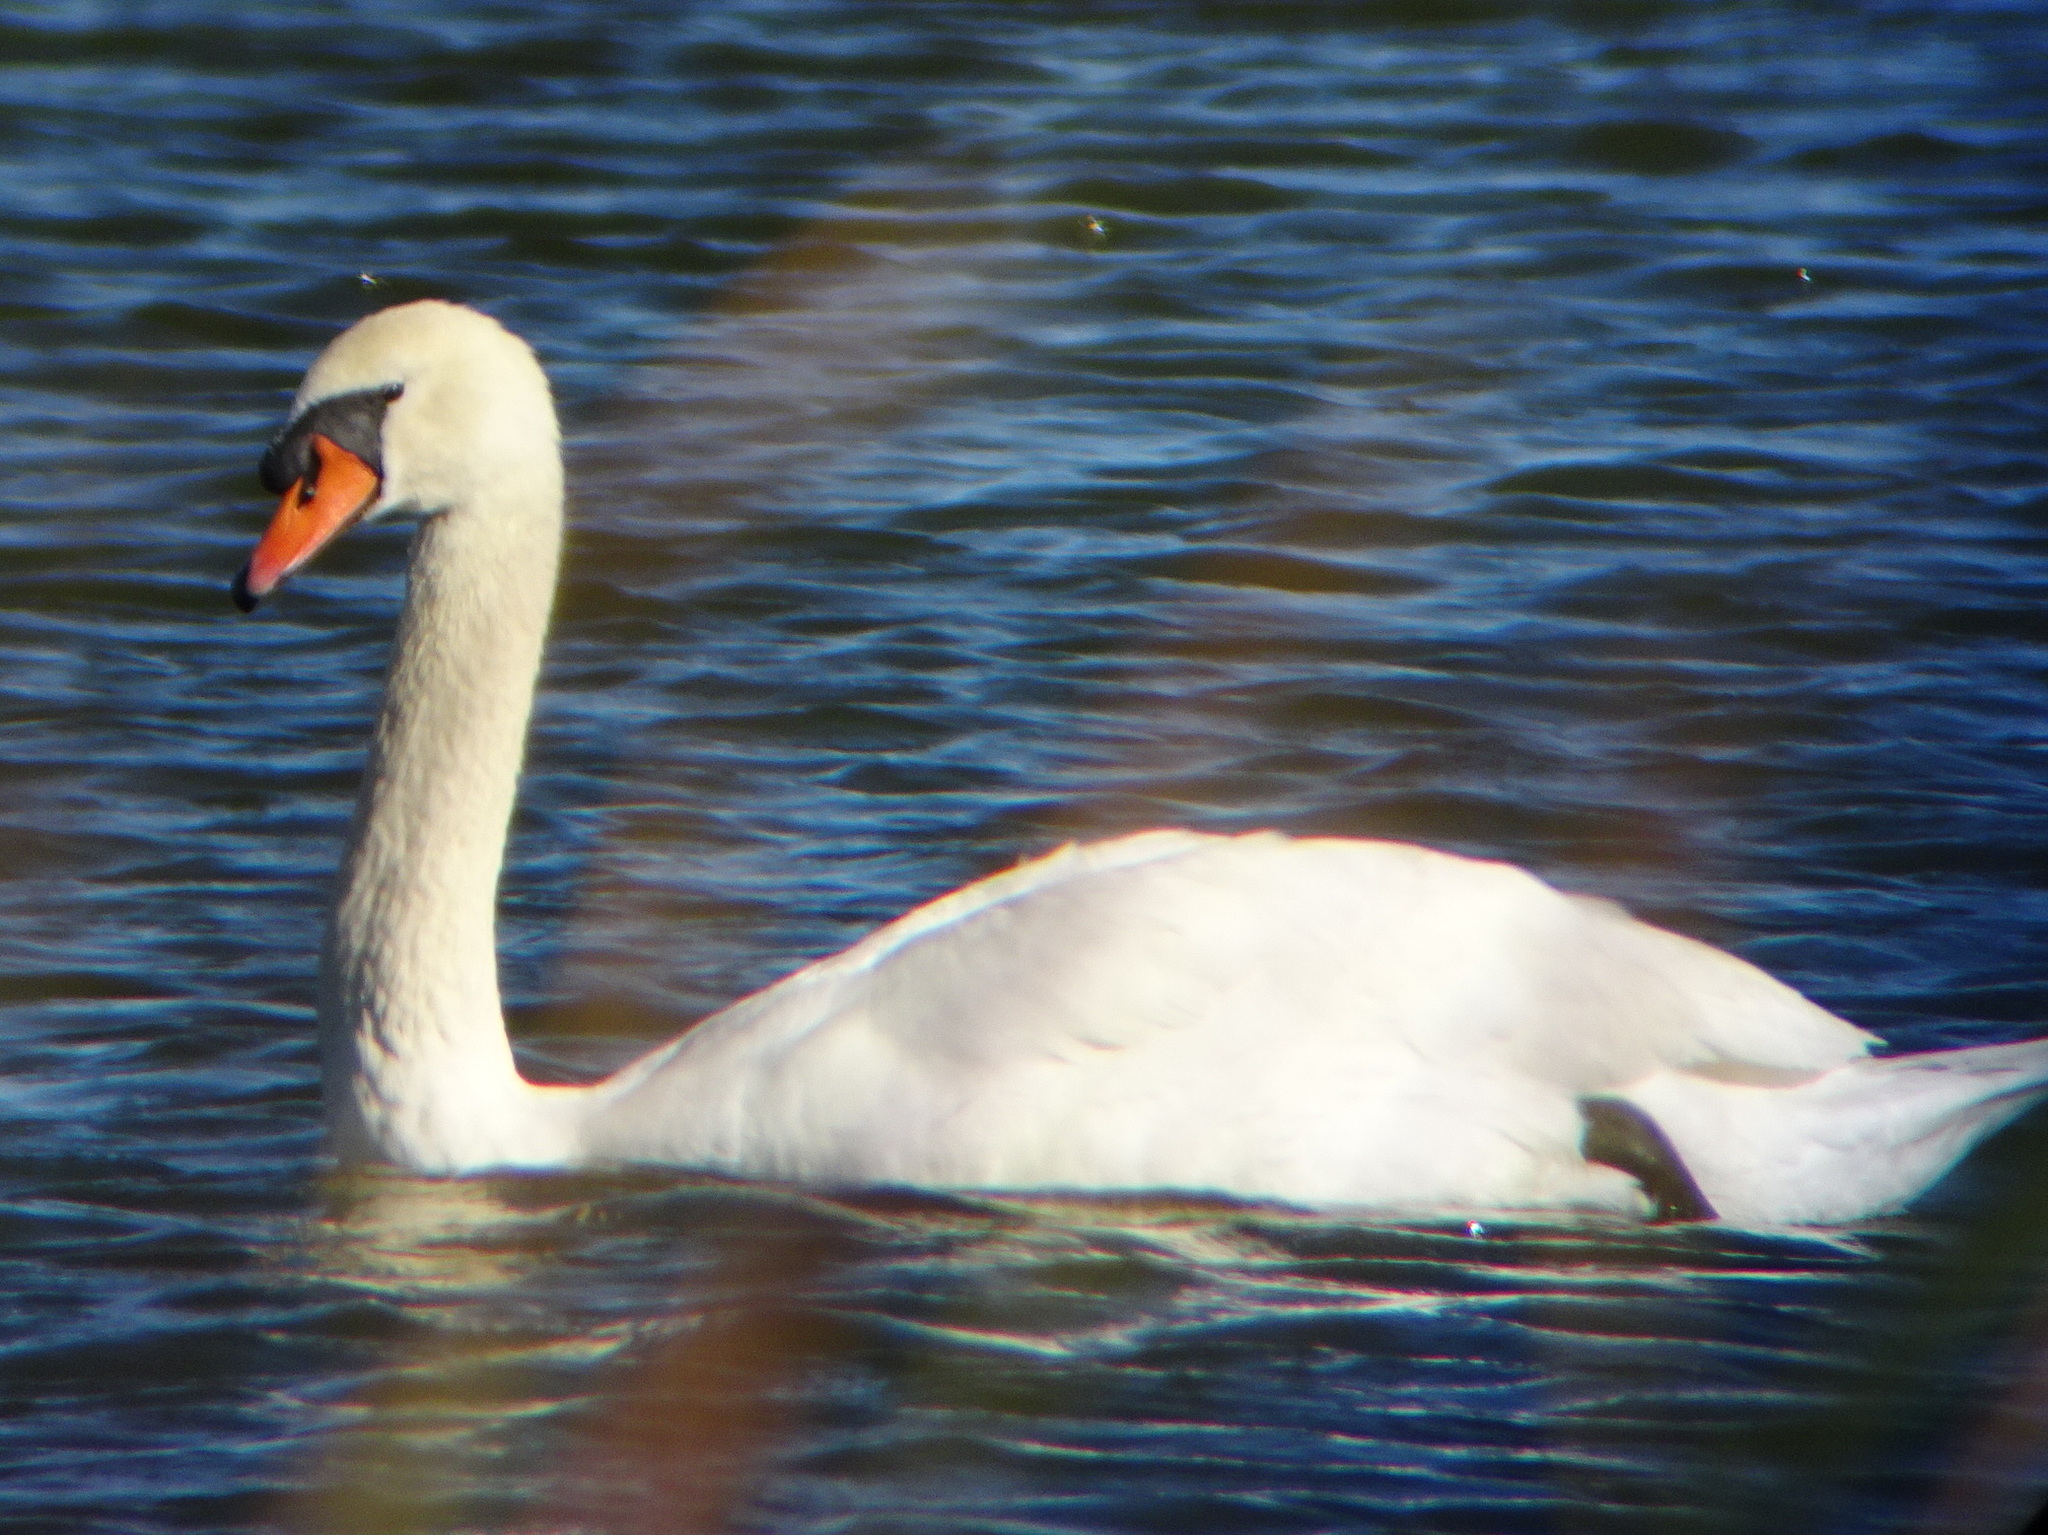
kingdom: Animalia
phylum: Chordata
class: Aves
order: Anseriformes
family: Anatidae
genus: Cygnus
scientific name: Cygnus olor
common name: Mute swan
